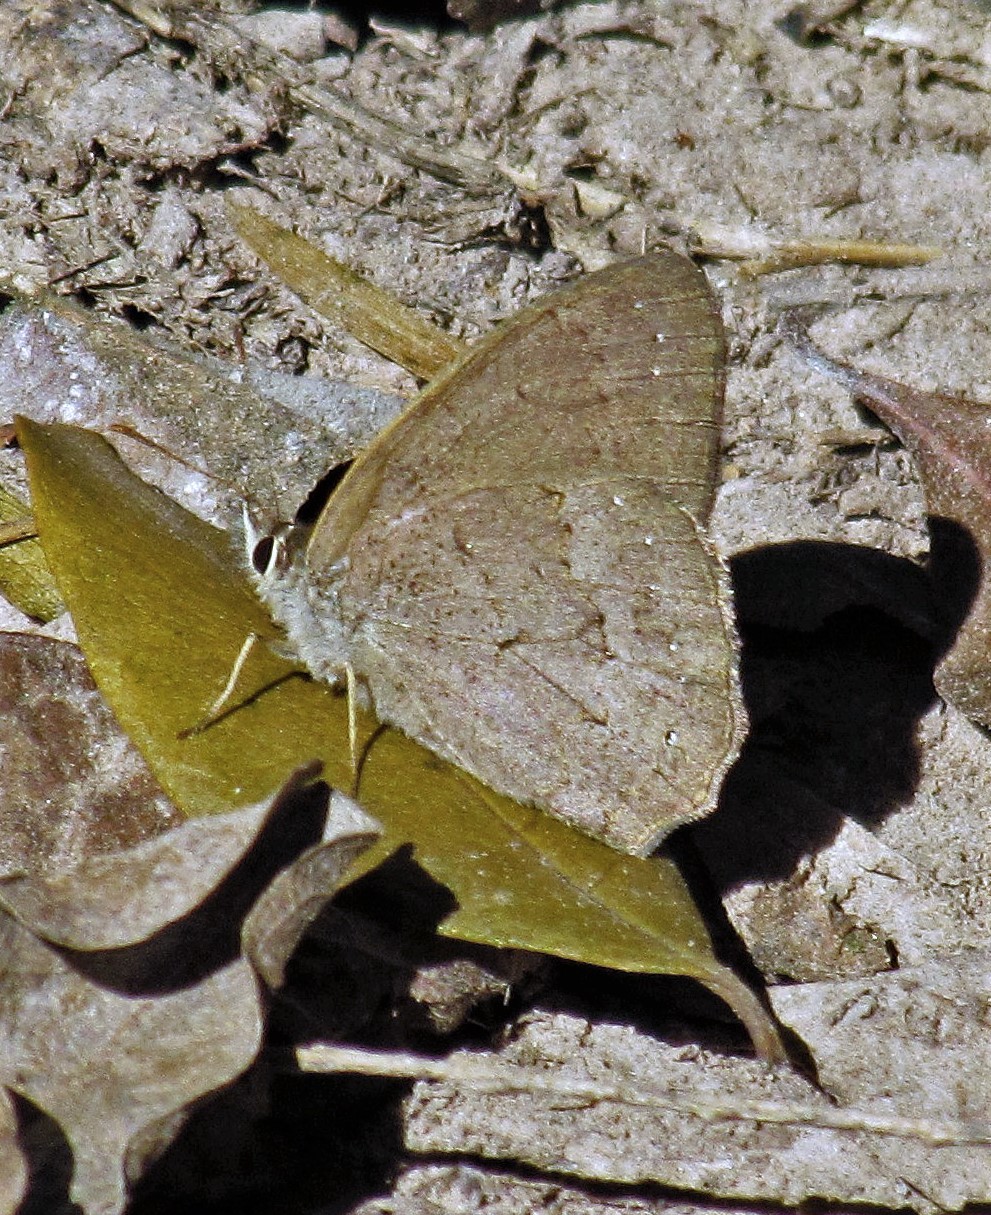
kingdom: Animalia
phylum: Arthropoda
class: Insecta
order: Lepidoptera
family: Nymphalidae
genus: Euptychia
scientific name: Euptychia
